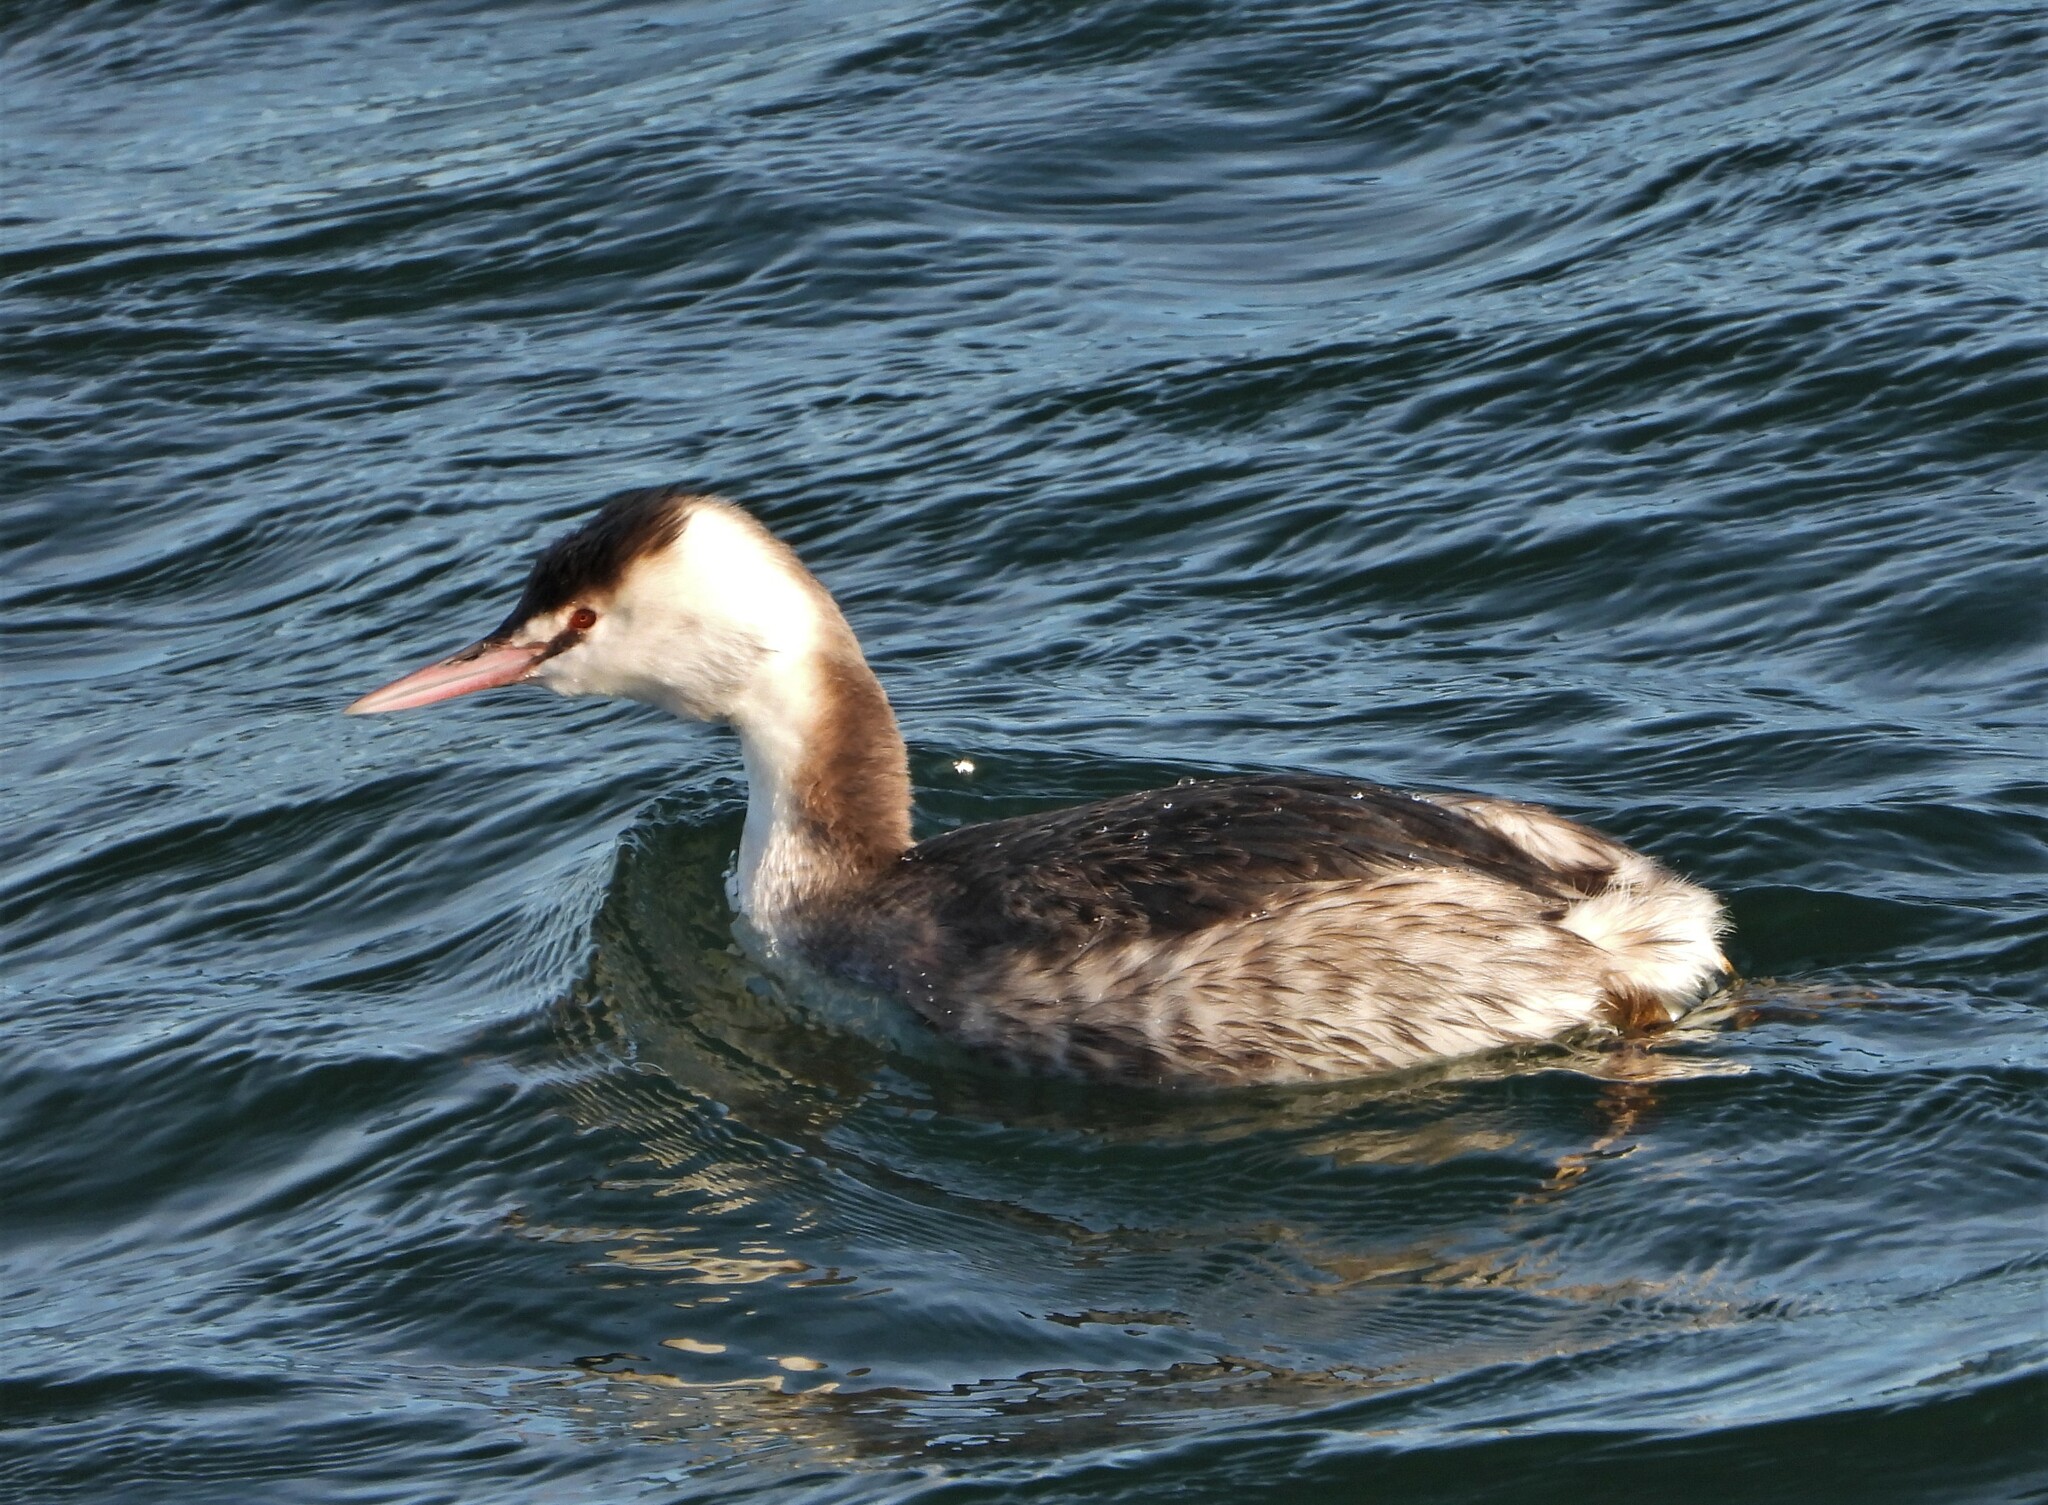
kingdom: Animalia
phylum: Chordata
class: Aves
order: Podicipediformes
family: Podicipedidae
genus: Podiceps
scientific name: Podiceps cristatus
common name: Great crested grebe
